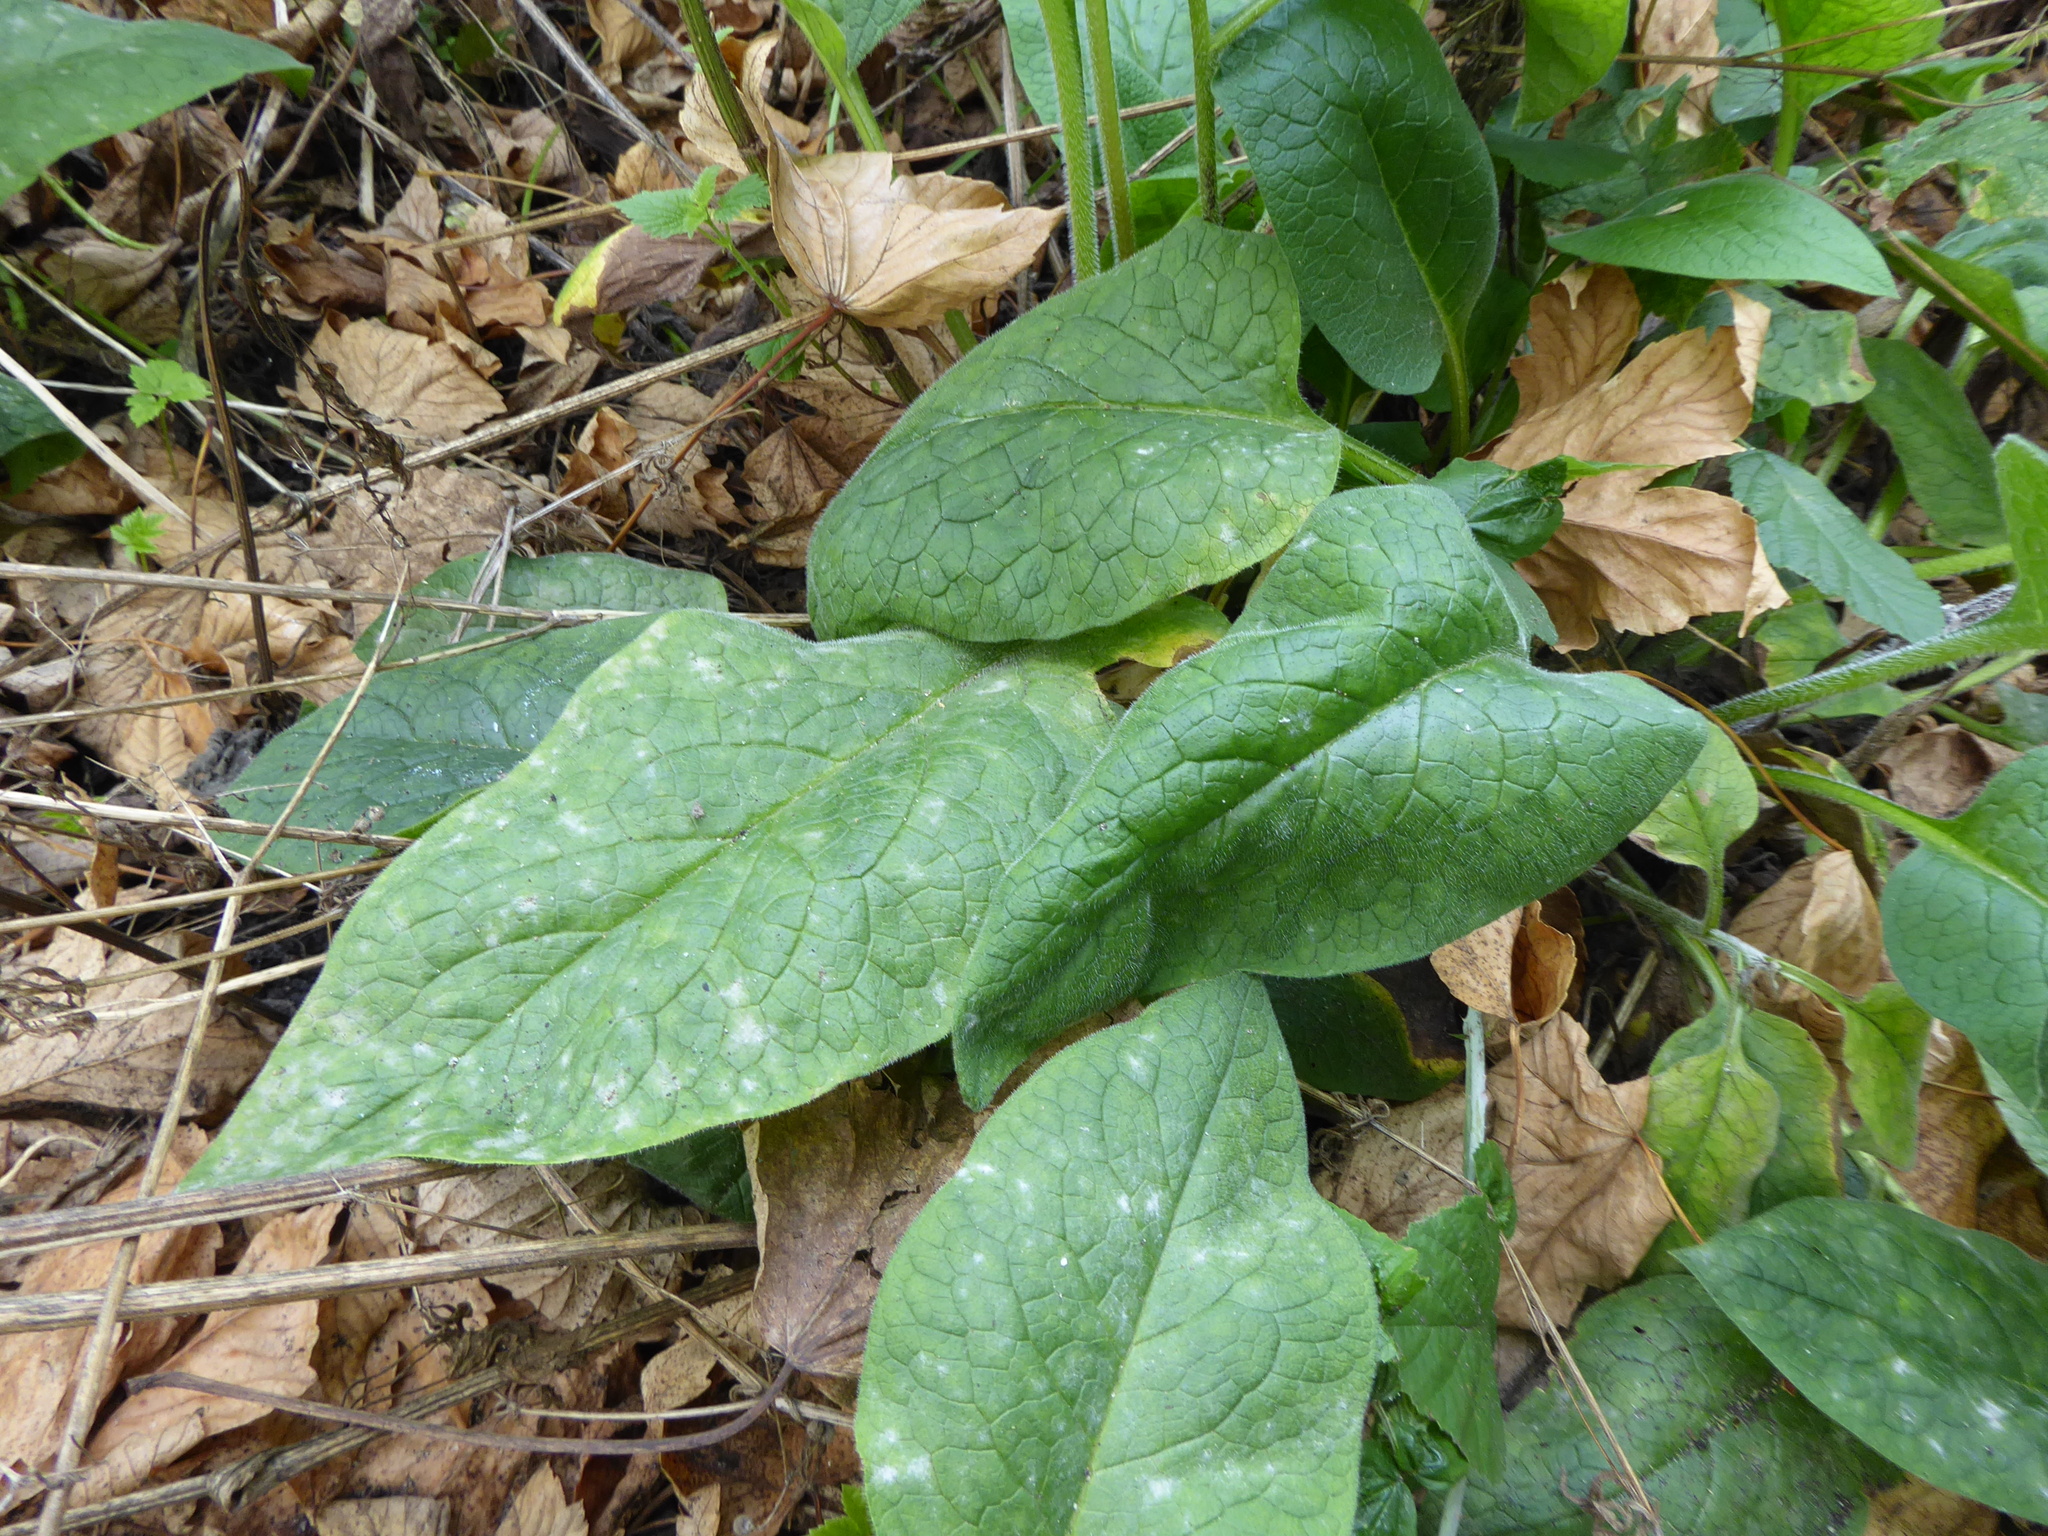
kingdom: Plantae
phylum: Tracheophyta
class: Magnoliopsida
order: Boraginales
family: Boraginaceae
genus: Symphytum
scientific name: Symphytum
